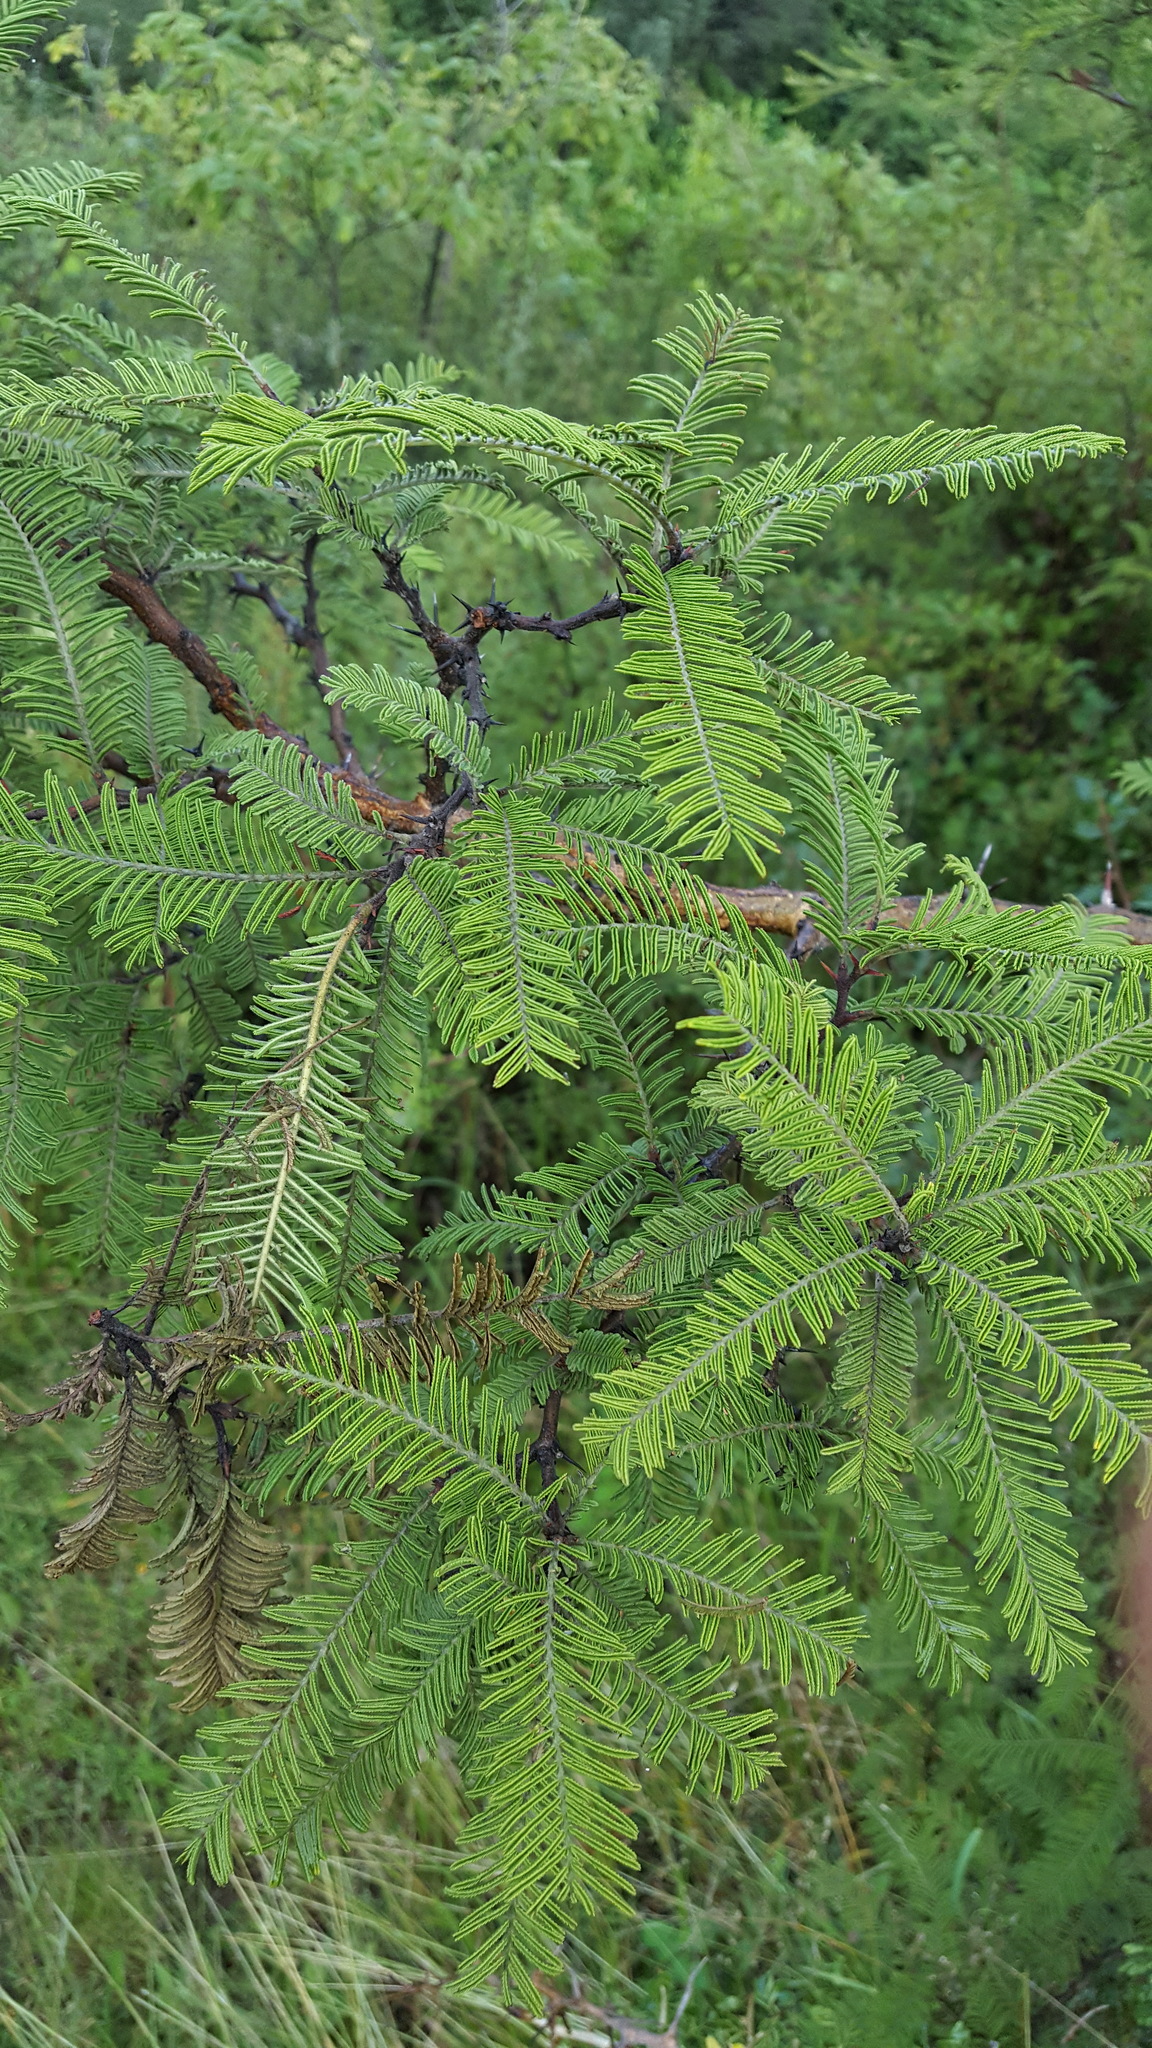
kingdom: Plantae
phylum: Tracheophyta
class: Magnoliopsida
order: Fabales
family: Fabaceae
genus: Vachellia
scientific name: Vachellia pennatula
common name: Fern-leaf acacia
